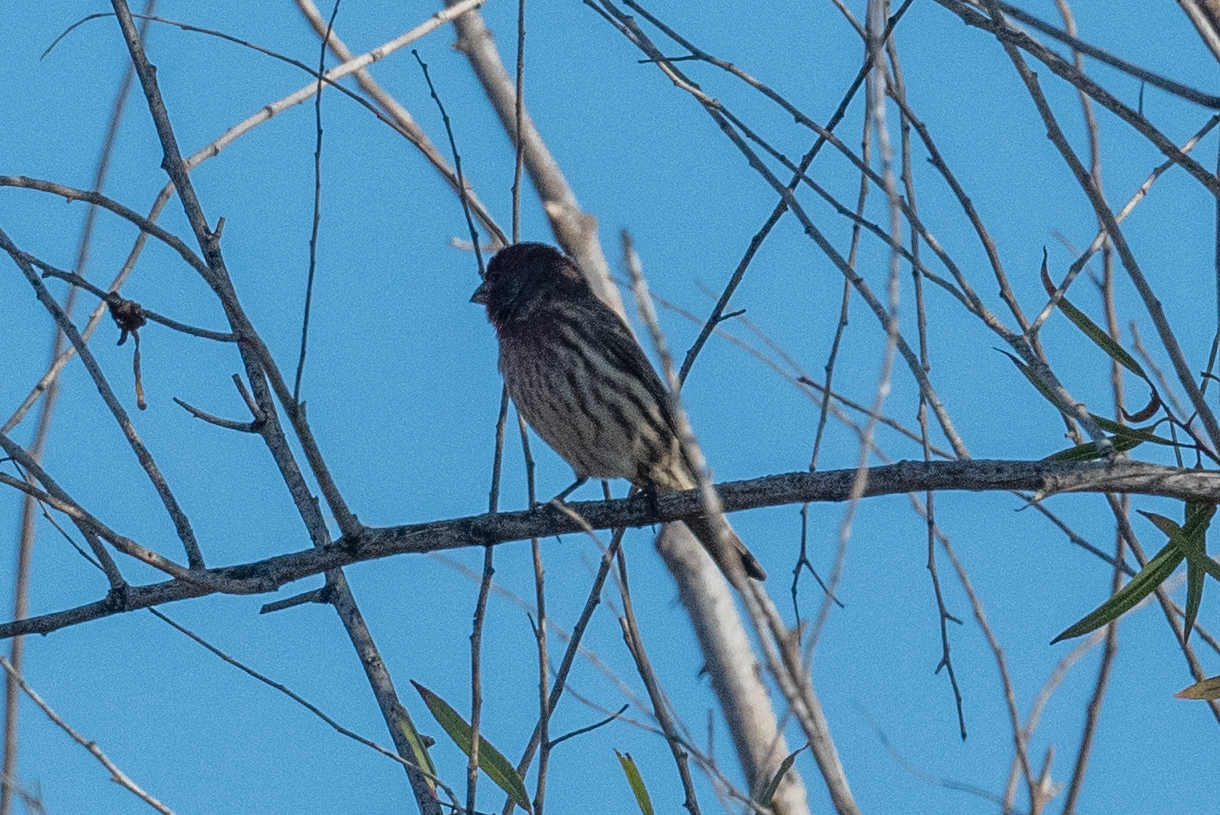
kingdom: Animalia
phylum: Chordata
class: Aves
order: Passeriformes
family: Fringillidae
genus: Haemorhous
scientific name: Haemorhous mexicanus
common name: House finch
